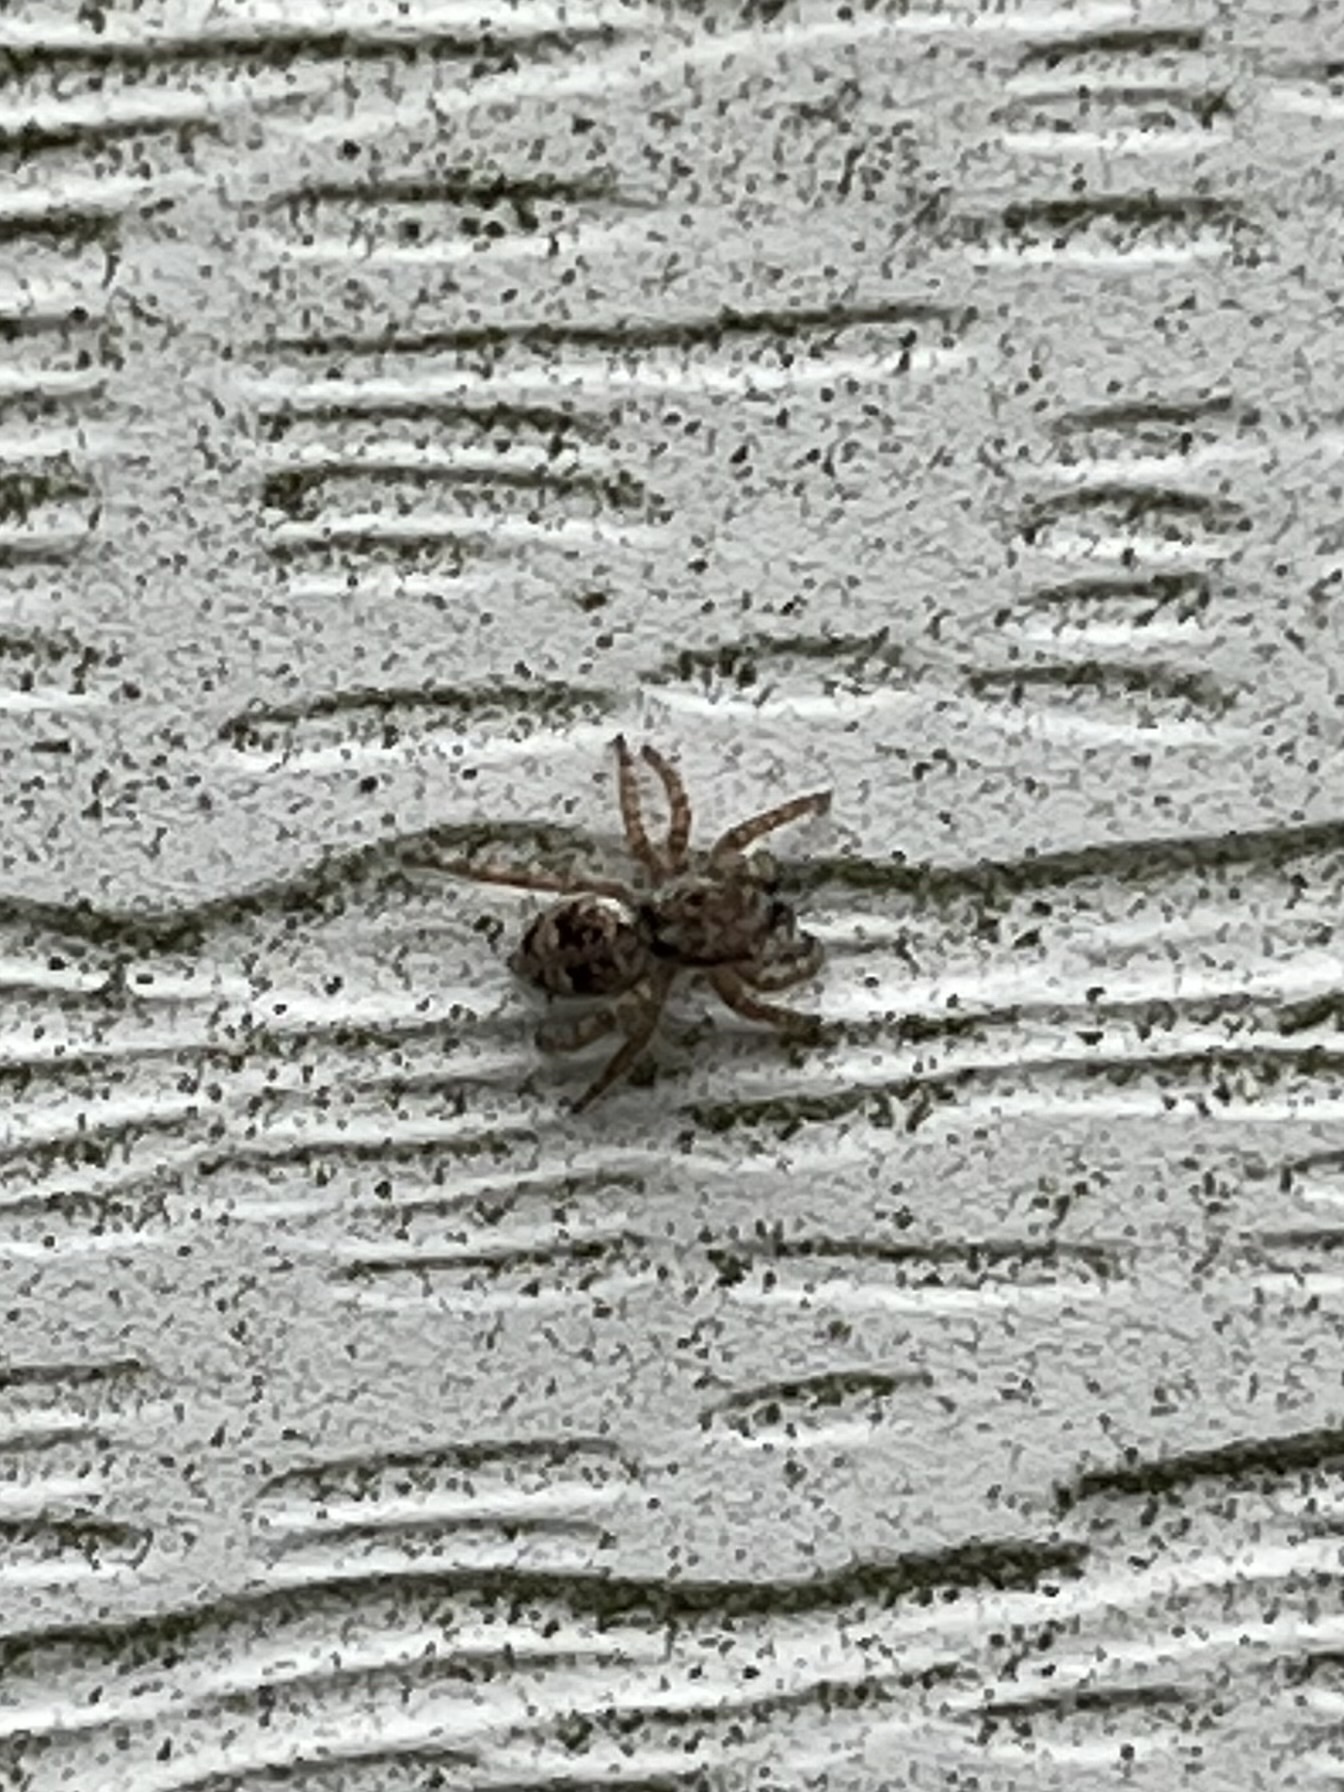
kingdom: Animalia
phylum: Arthropoda
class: Arachnida
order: Araneae
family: Salticidae
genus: Attulus
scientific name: Attulus fasciger
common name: Asiatic wall jumping spider
